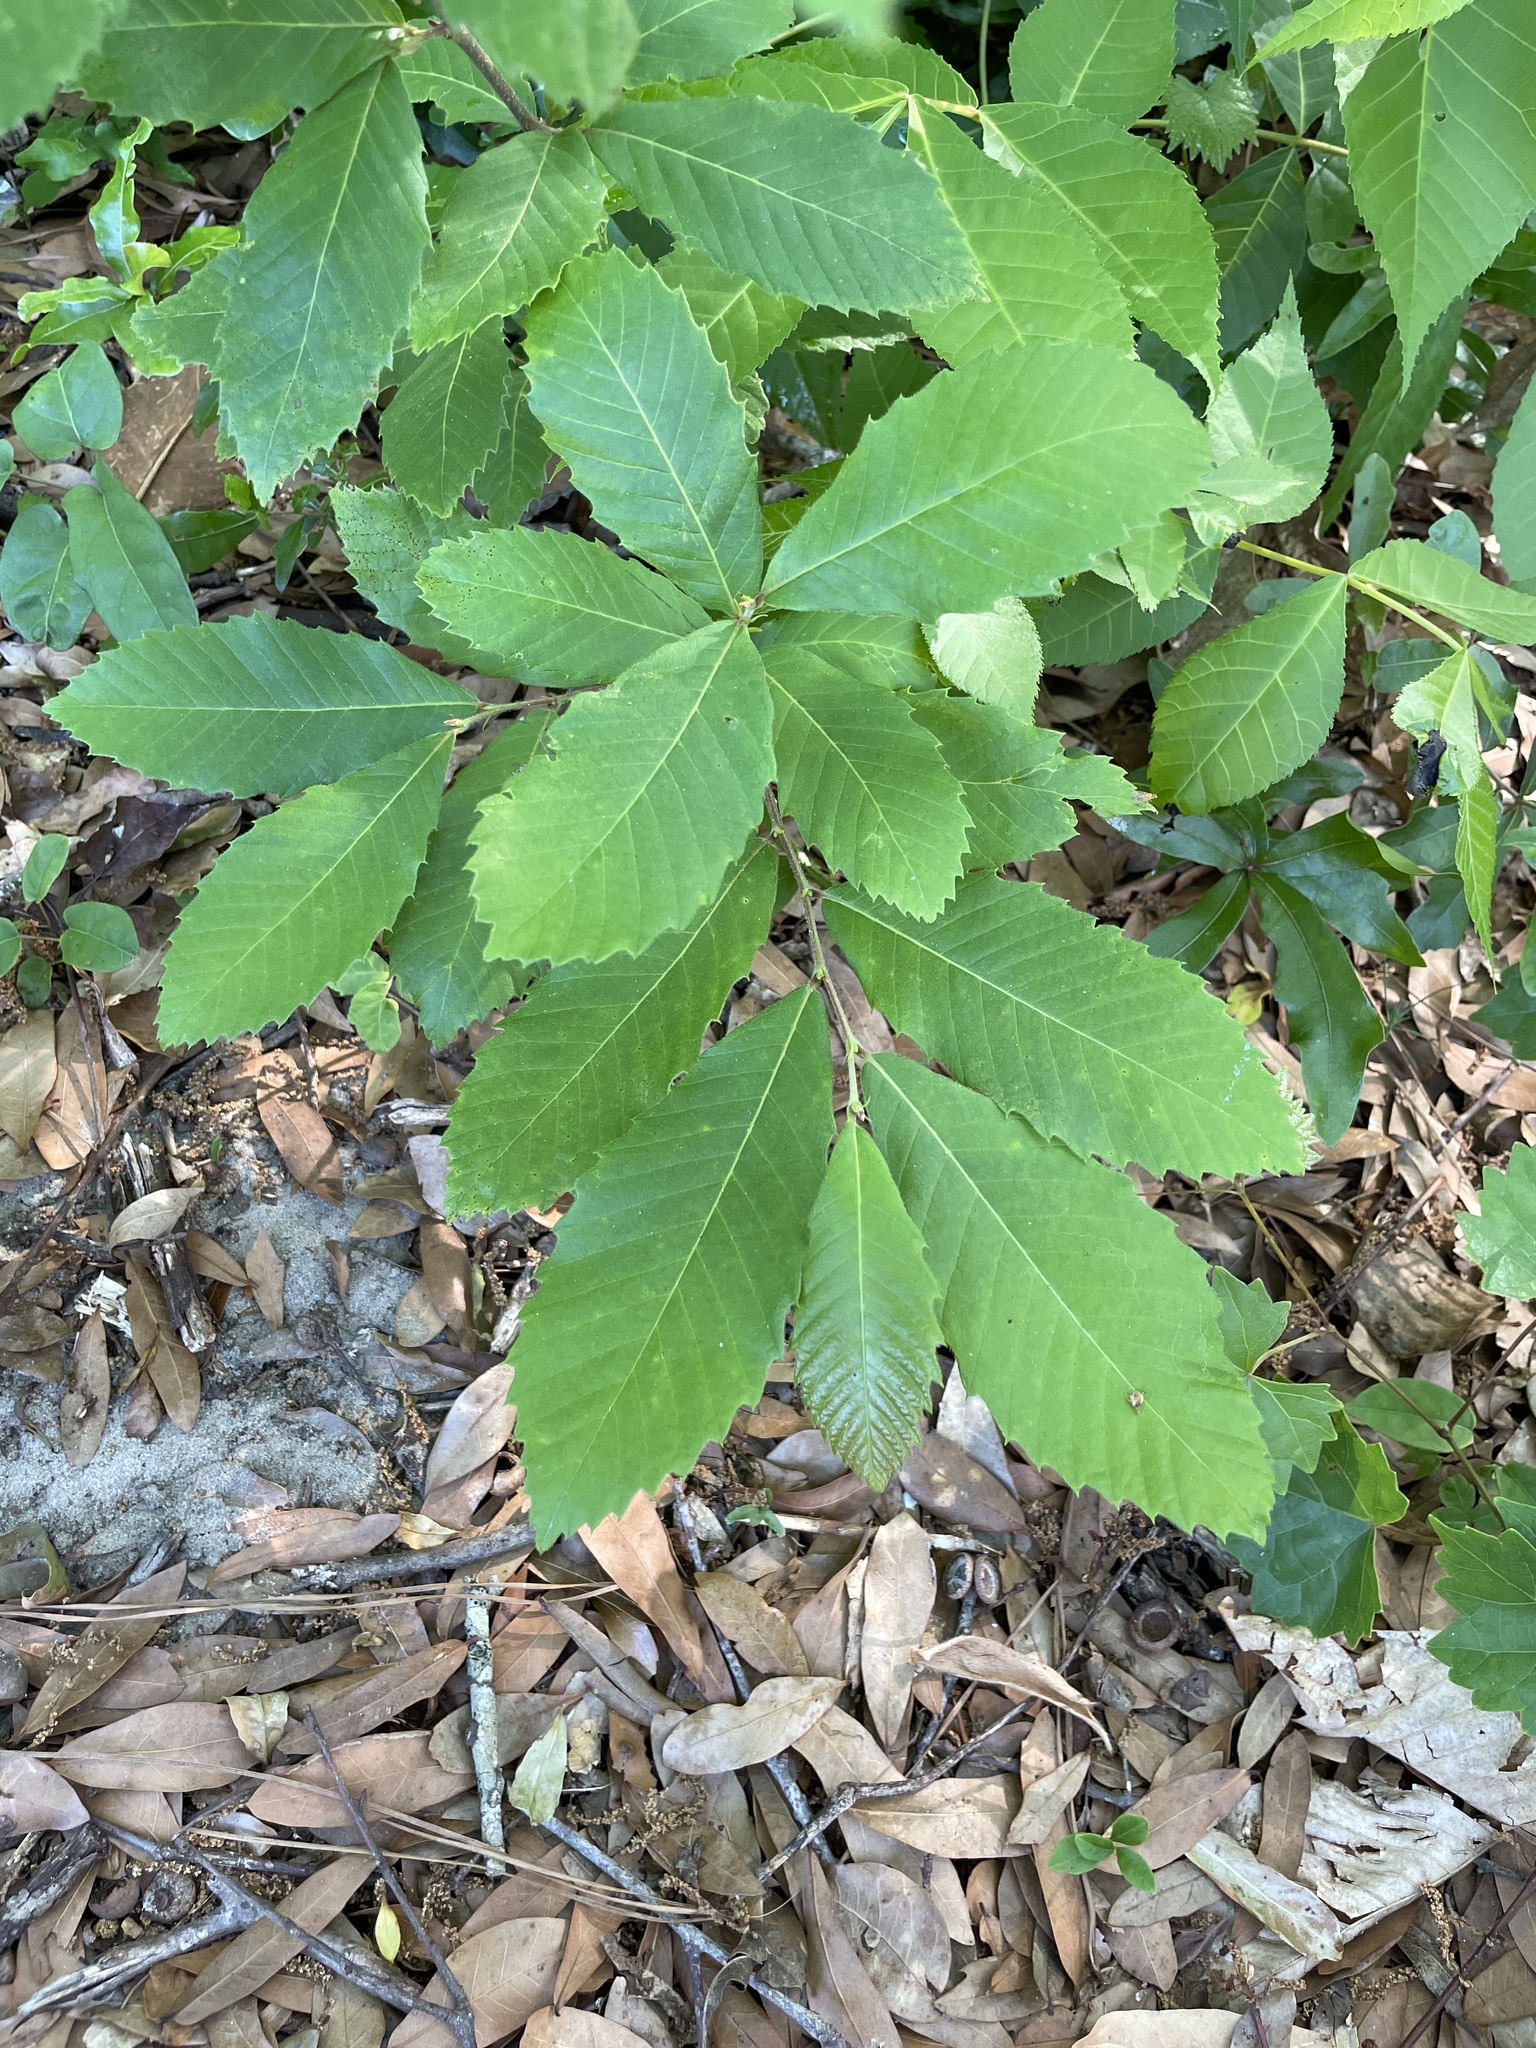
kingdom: Plantae
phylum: Tracheophyta
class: Magnoliopsida
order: Fagales
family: Fagaceae
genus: Castanea
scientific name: Castanea pumila
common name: Chinkapin
